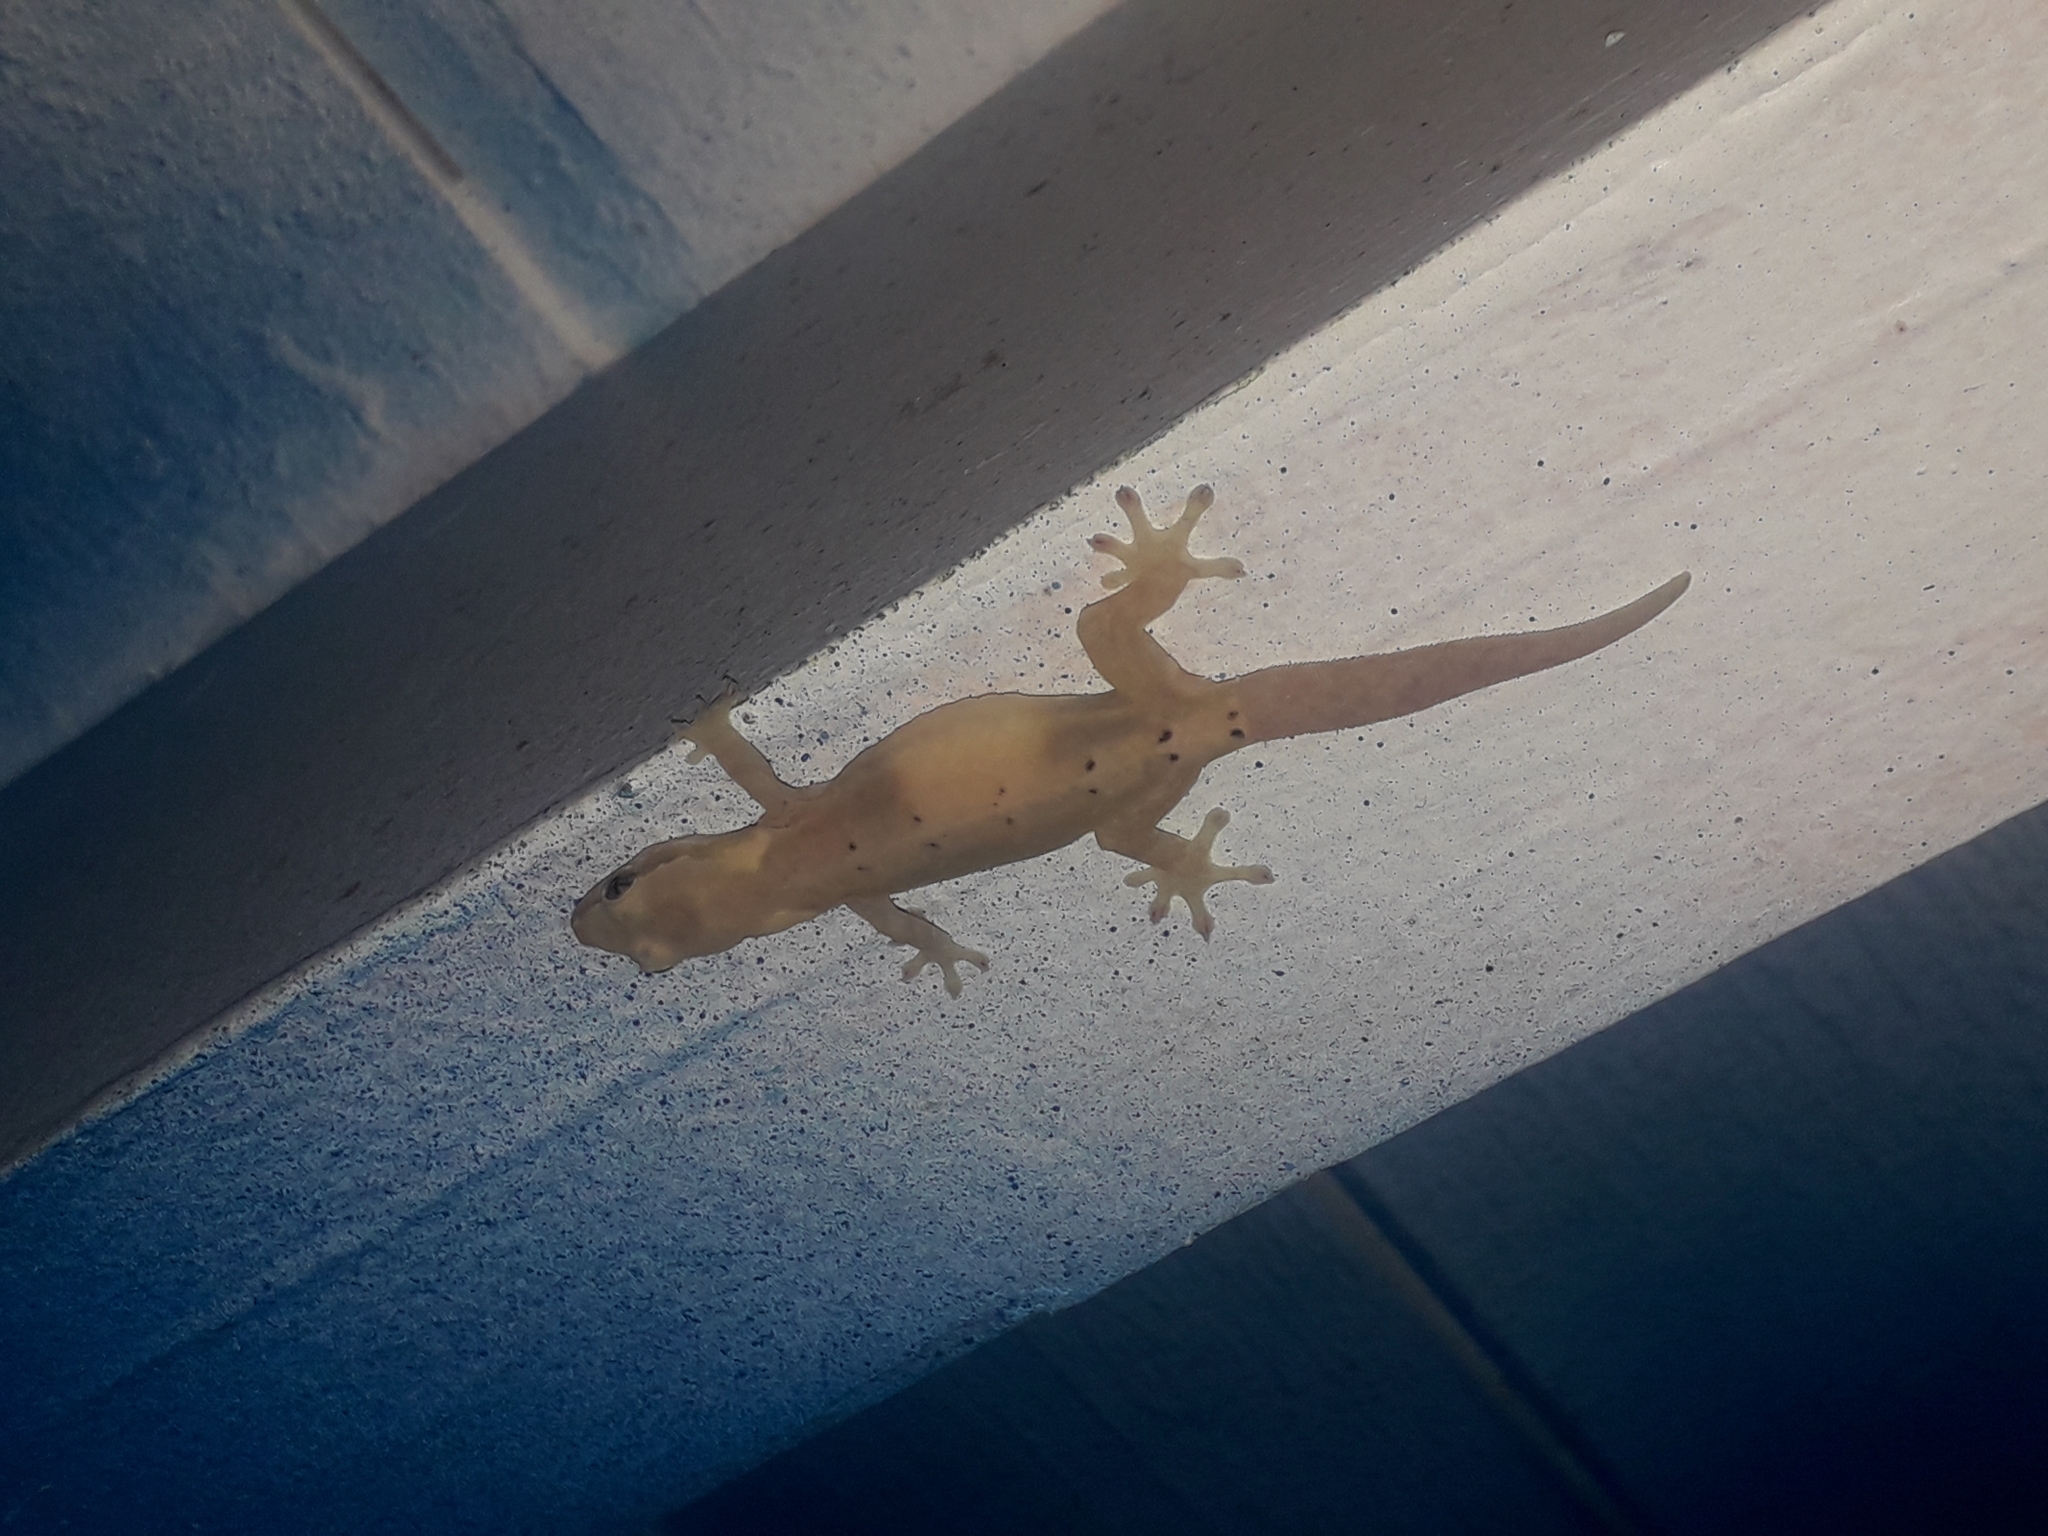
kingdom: Animalia
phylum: Chordata
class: Squamata
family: Gekkonidae
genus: Lepidodactylus
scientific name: Lepidodactylus lugubris
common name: Mourning gecko
